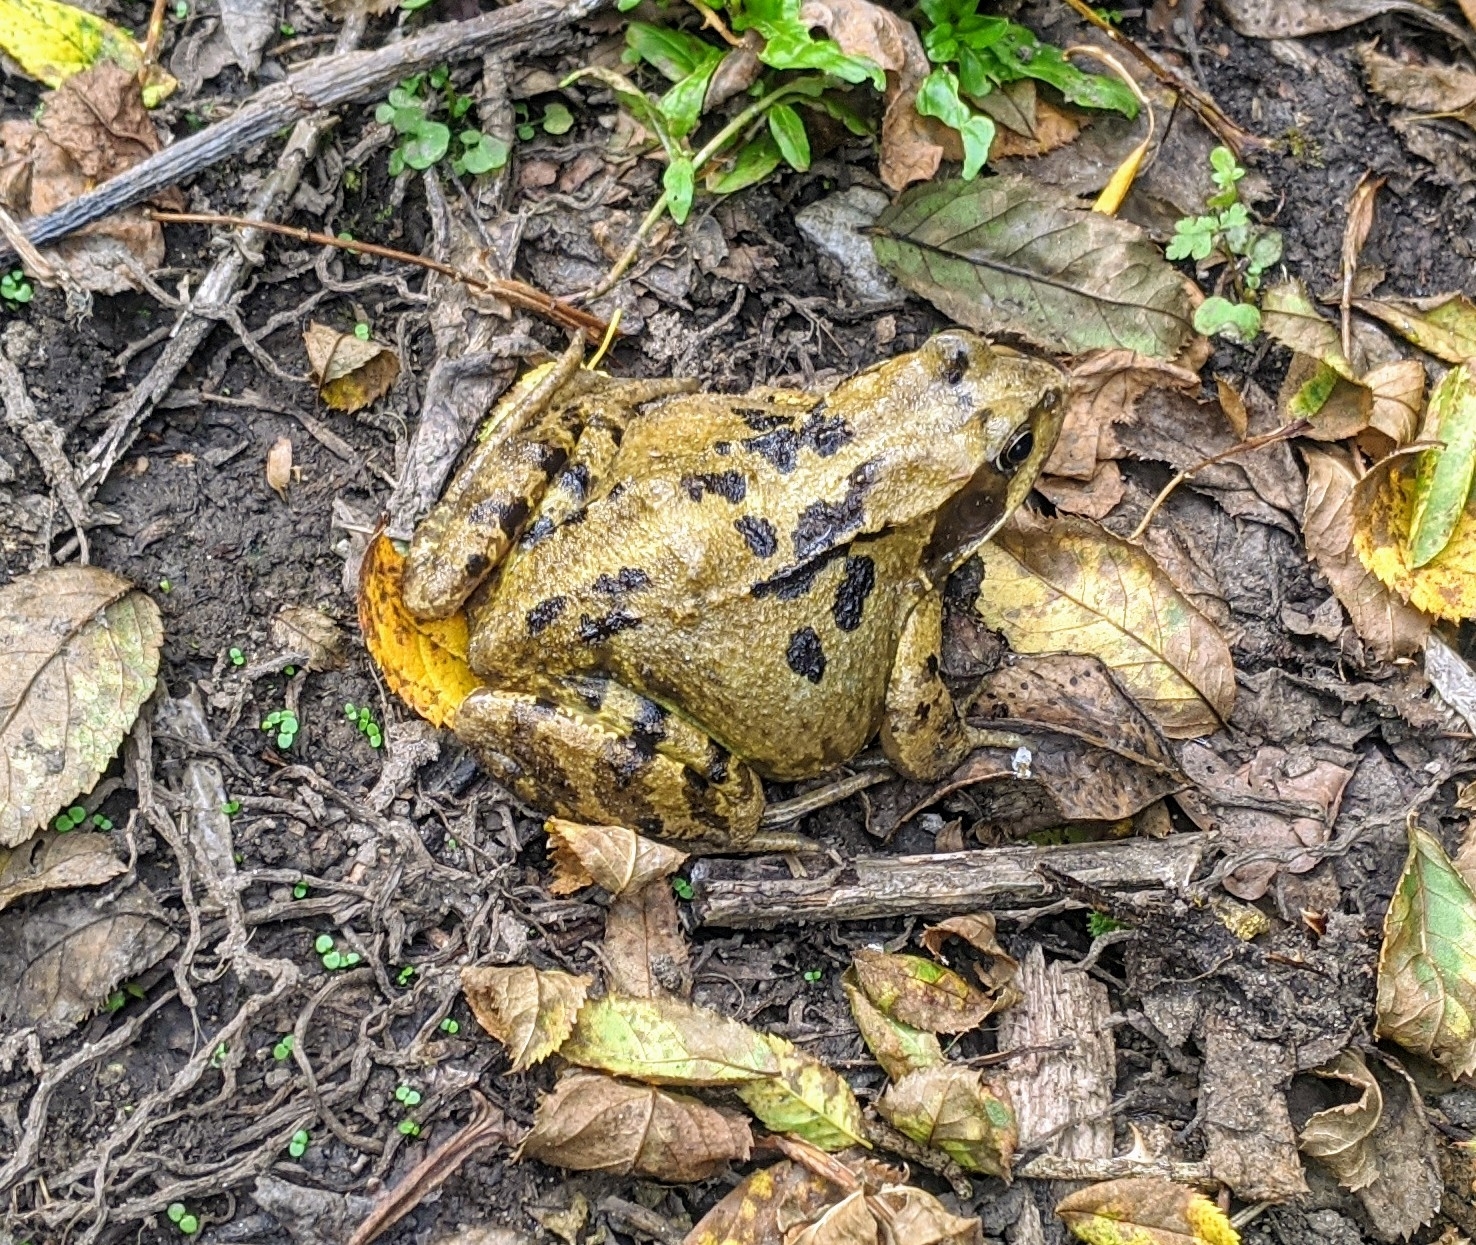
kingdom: Animalia
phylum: Chordata
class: Amphibia
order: Anura
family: Ranidae
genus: Rana
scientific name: Rana temporaria
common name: Common frog
